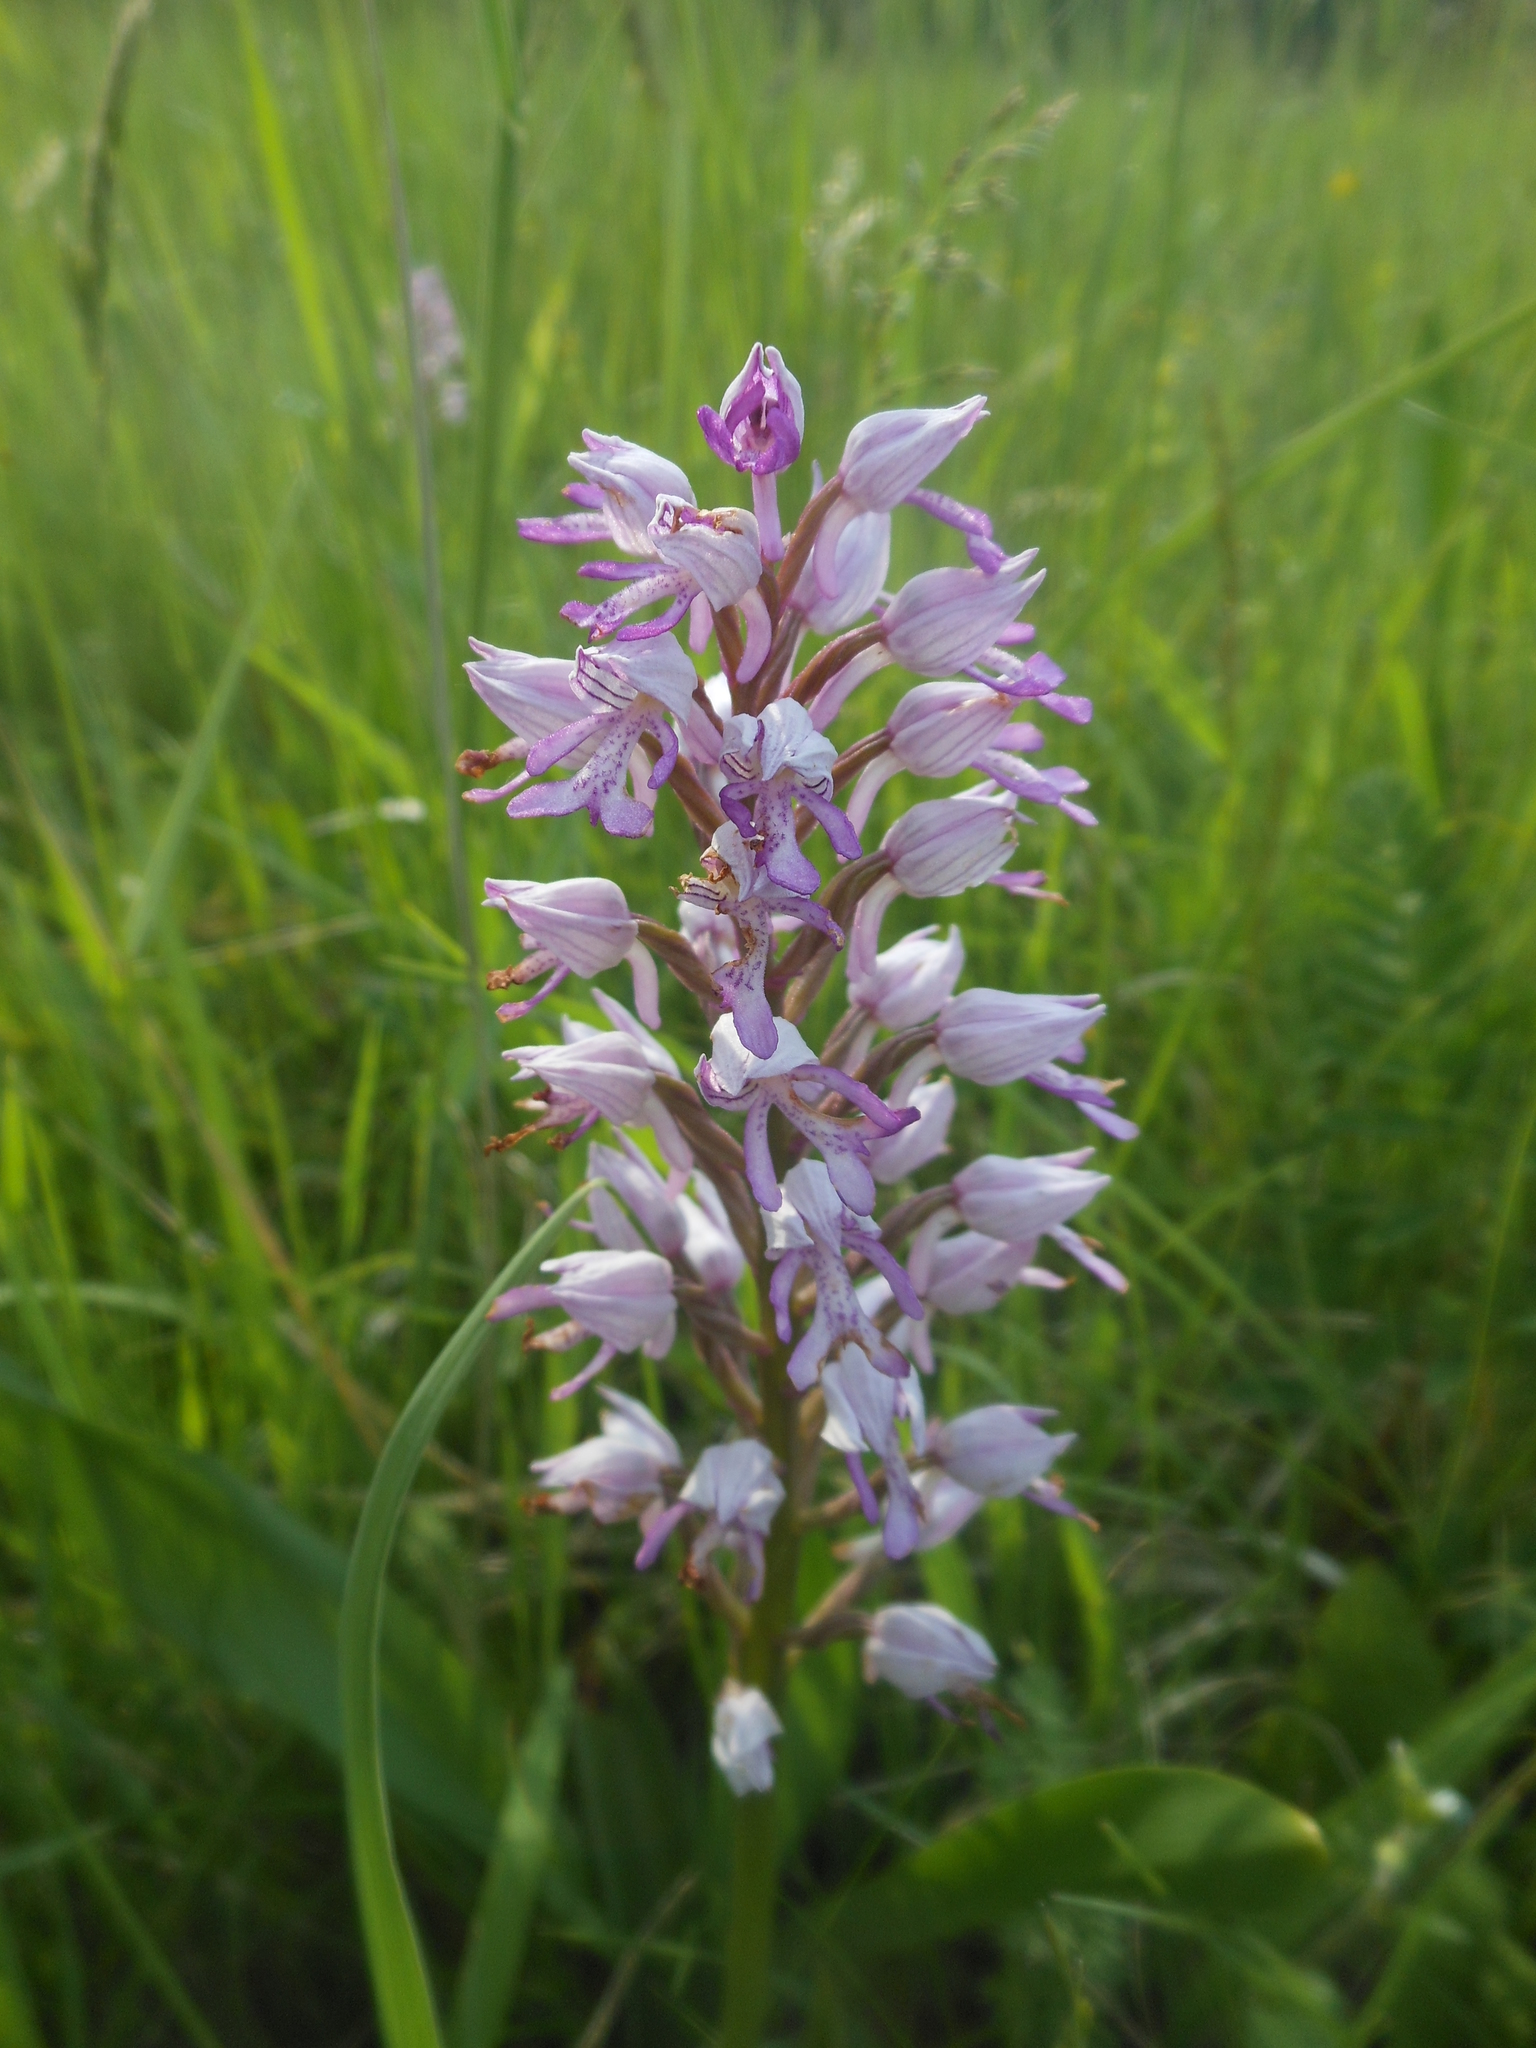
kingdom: Plantae
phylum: Tracheophyta
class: Liliopsida
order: Asparagales
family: Orchidaceae
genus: Orchis
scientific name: Orchis militaris
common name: Military orchid
